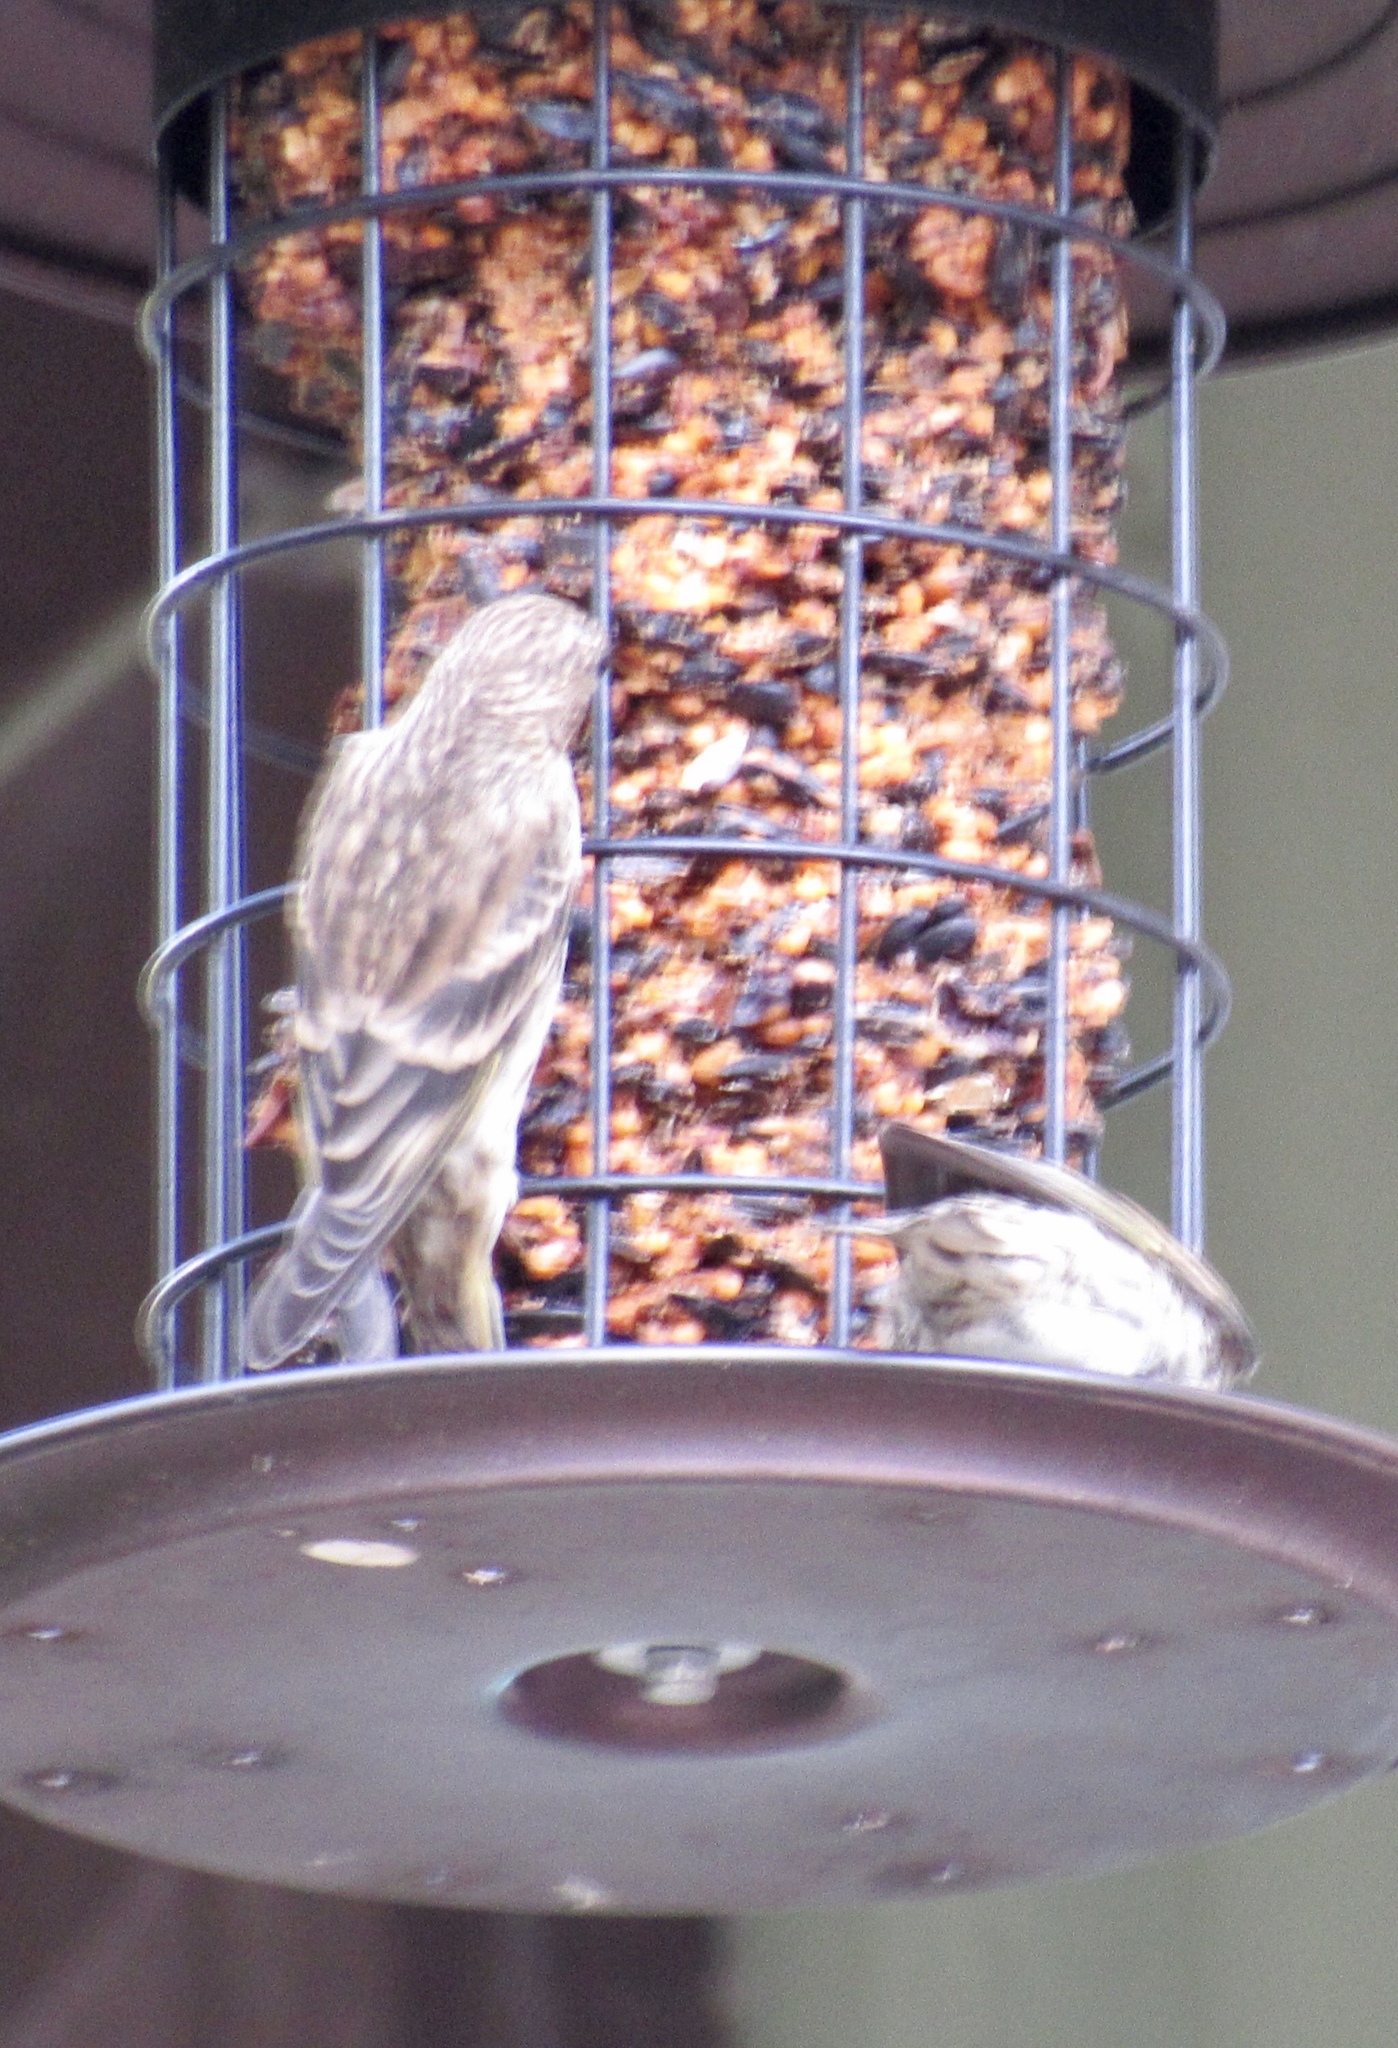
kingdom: Animalia
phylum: Chordata
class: Aves
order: Passeriformes
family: Fringillidae
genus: Spinus
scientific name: Spinus pinus
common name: Pine siskin
